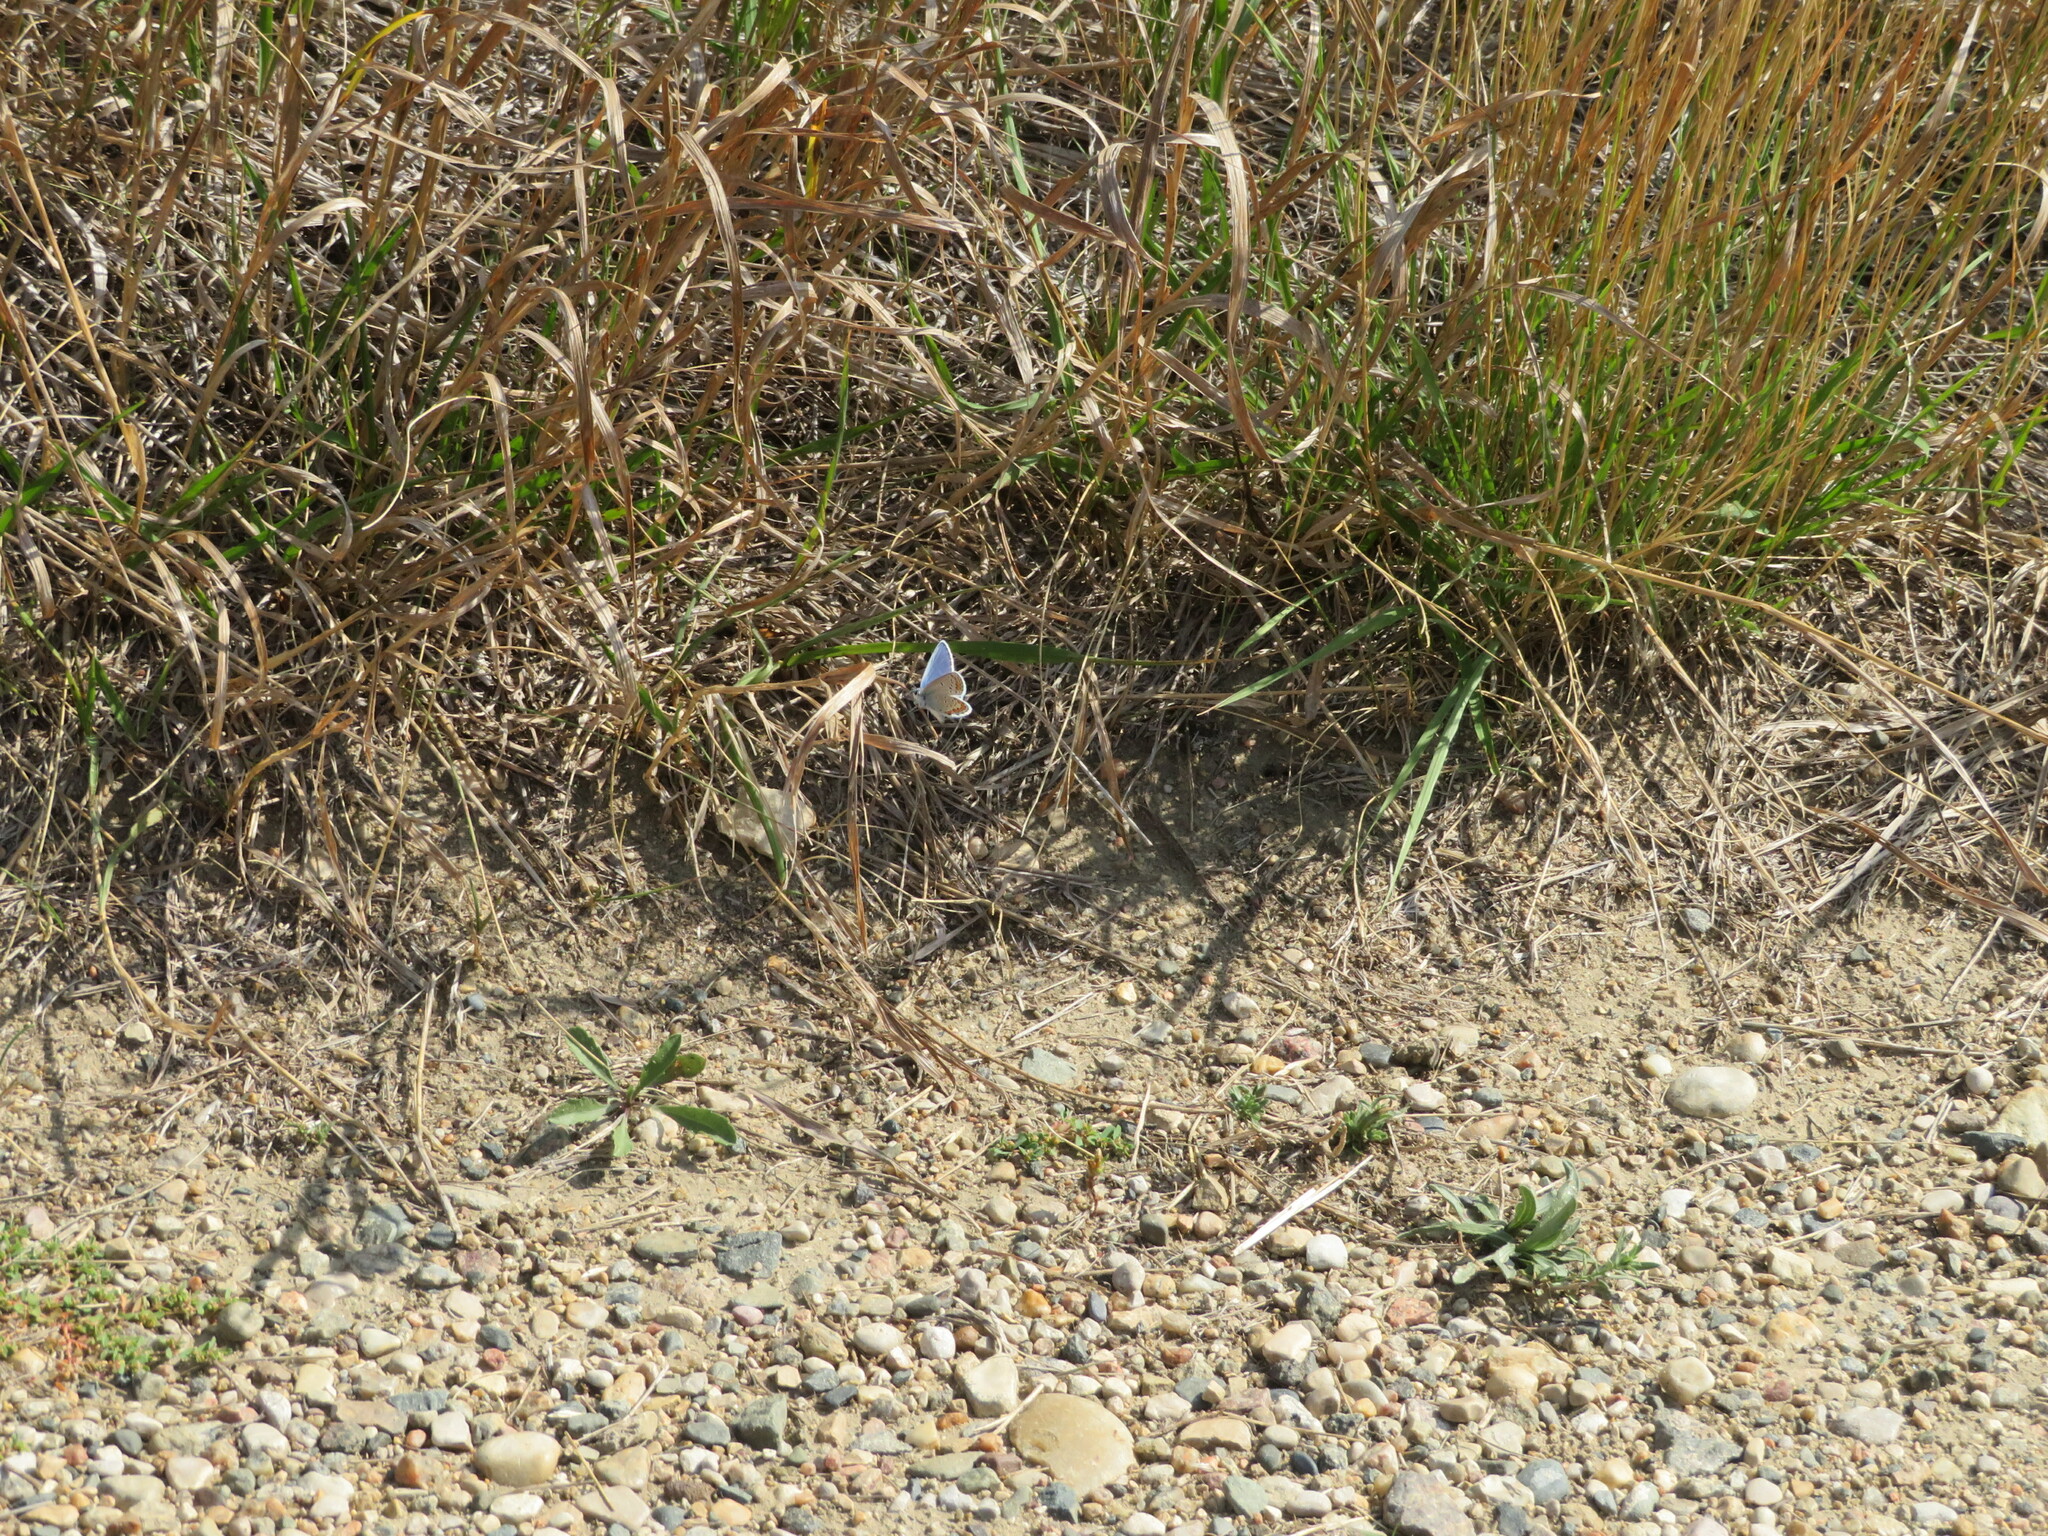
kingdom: Animalia
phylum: Arthropoda
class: Insecta
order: Lepidoptera
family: Lycaenidae
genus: Lycaeides
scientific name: Lycaeides melissa
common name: Melissa blue
